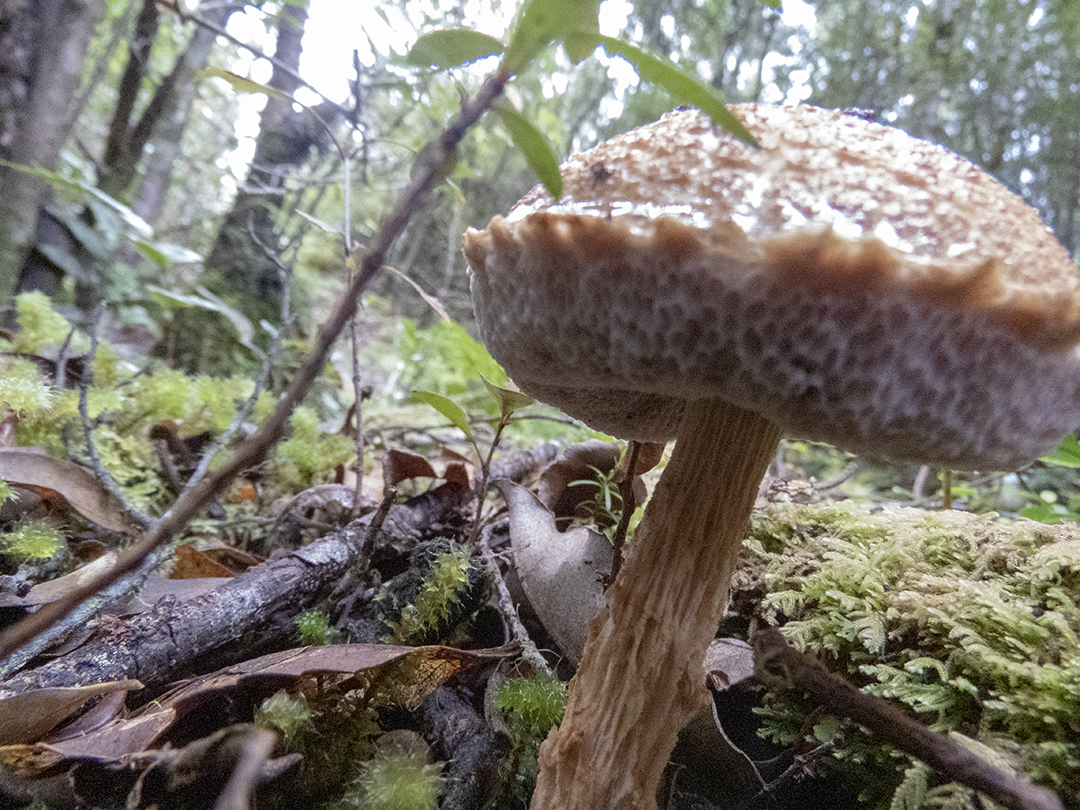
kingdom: Fungi
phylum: Basidiomycota
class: Agaricomycetes
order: Boletales
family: Boletaceae
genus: Austroboletus
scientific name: Austroboletus lacunosus
